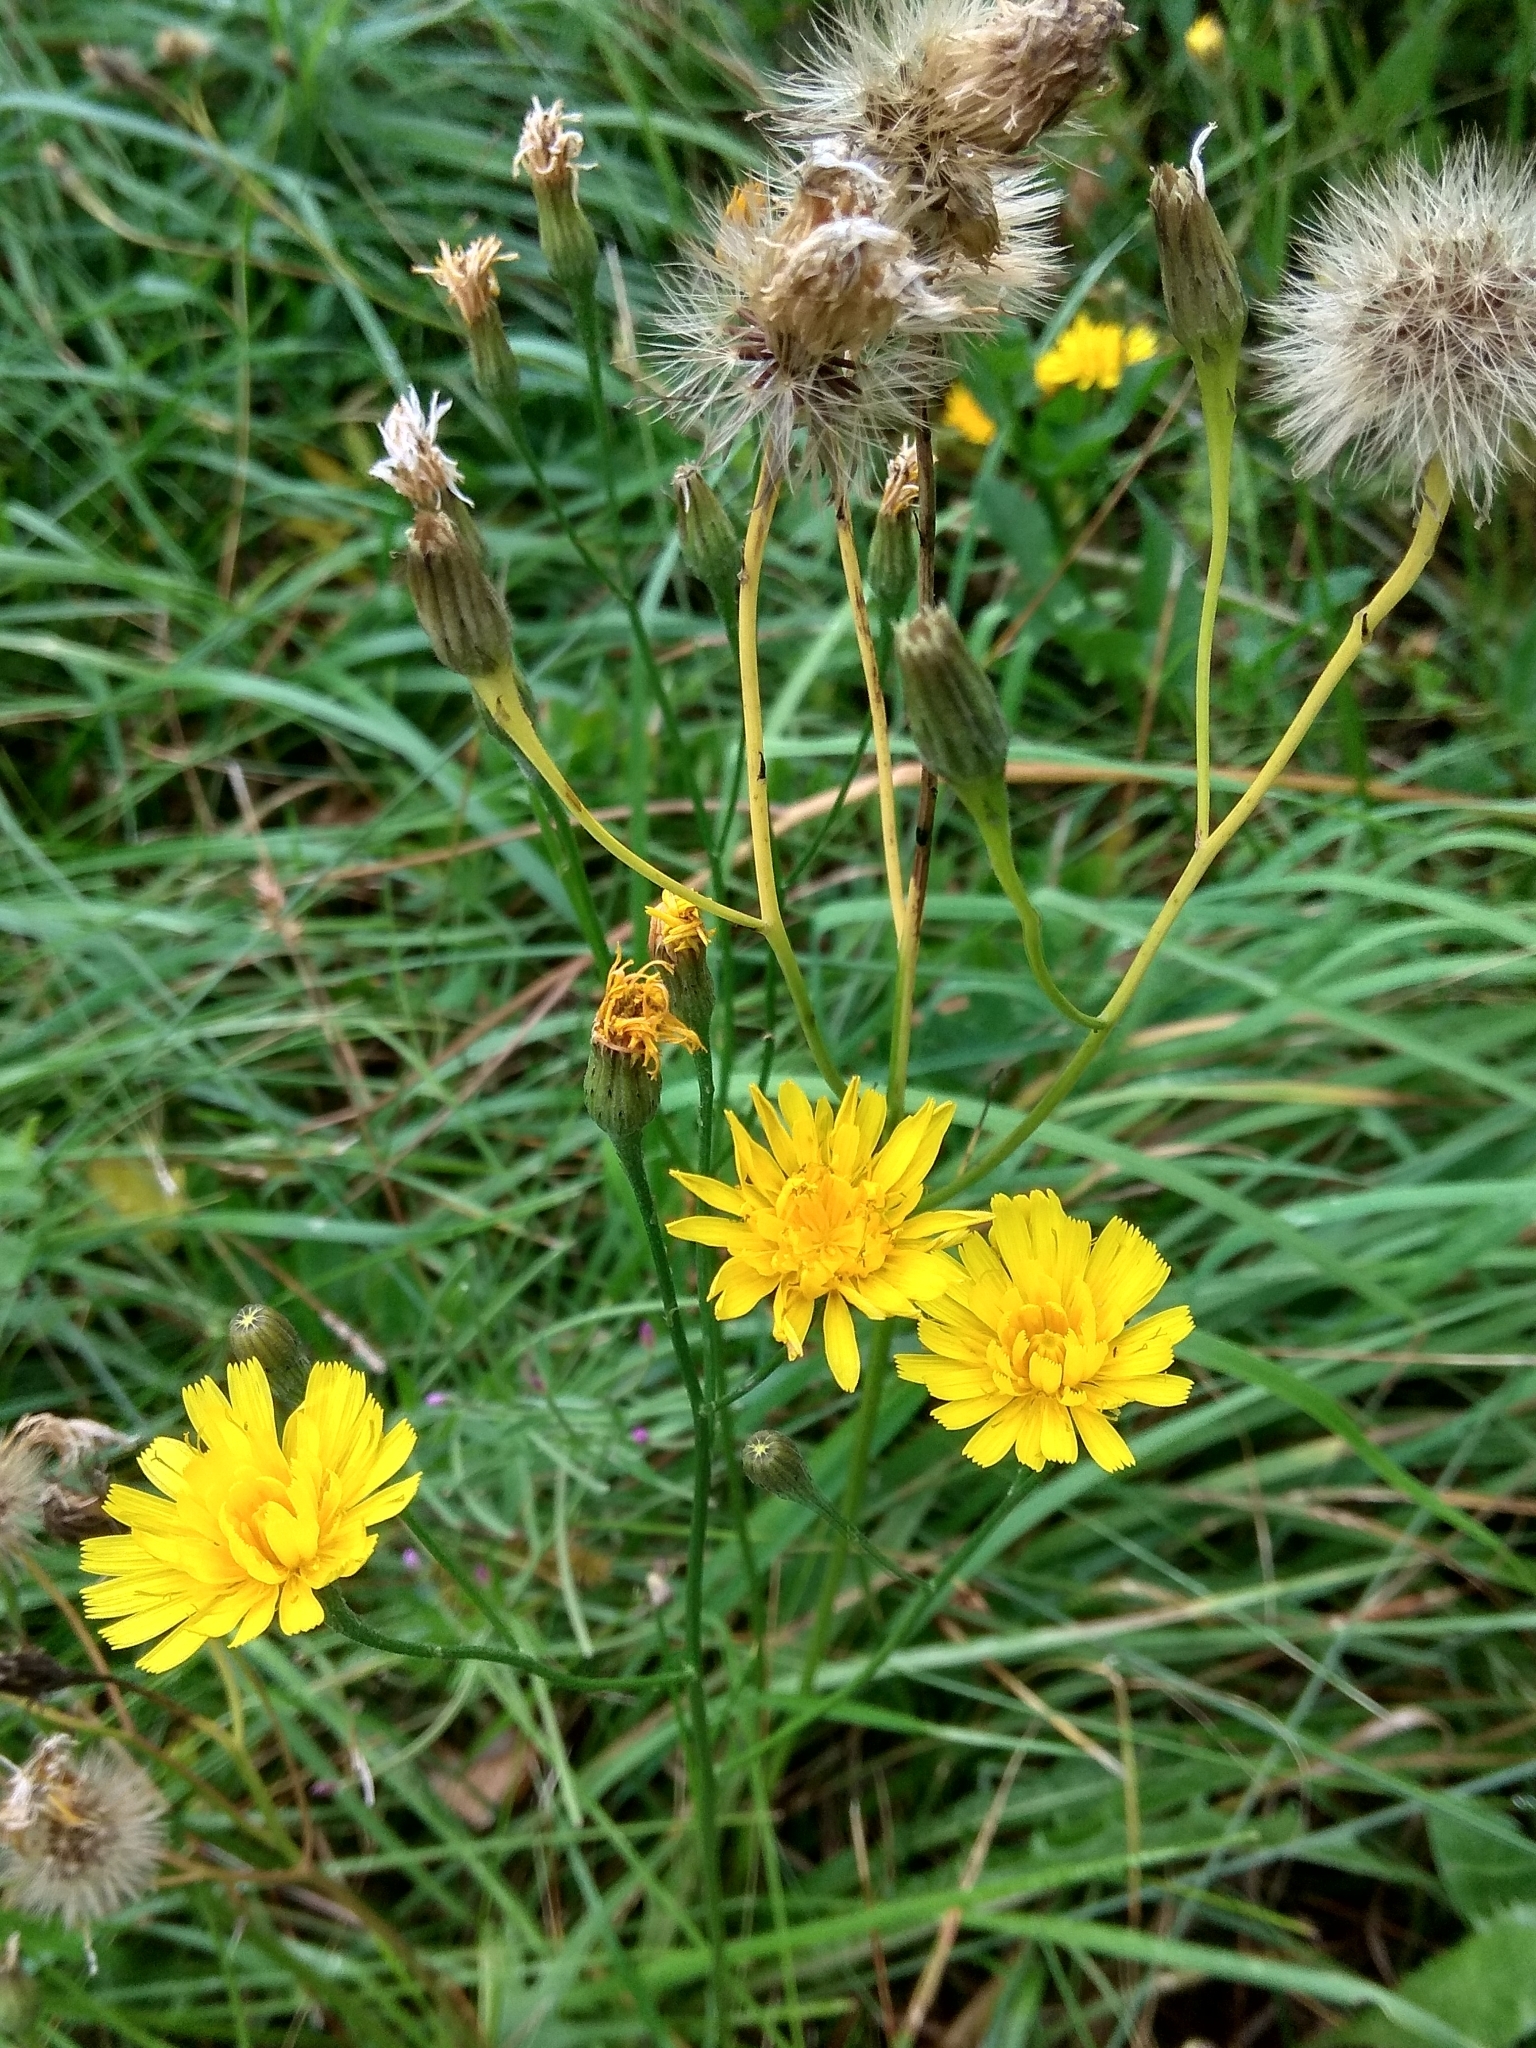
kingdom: Plantae
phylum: Tracheophyta
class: Magnoliopsida
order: Asterales
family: Asteraceae
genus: Scorzoneroides
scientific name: Scorzoneroides autumnalis
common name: Autumn hawkbit
